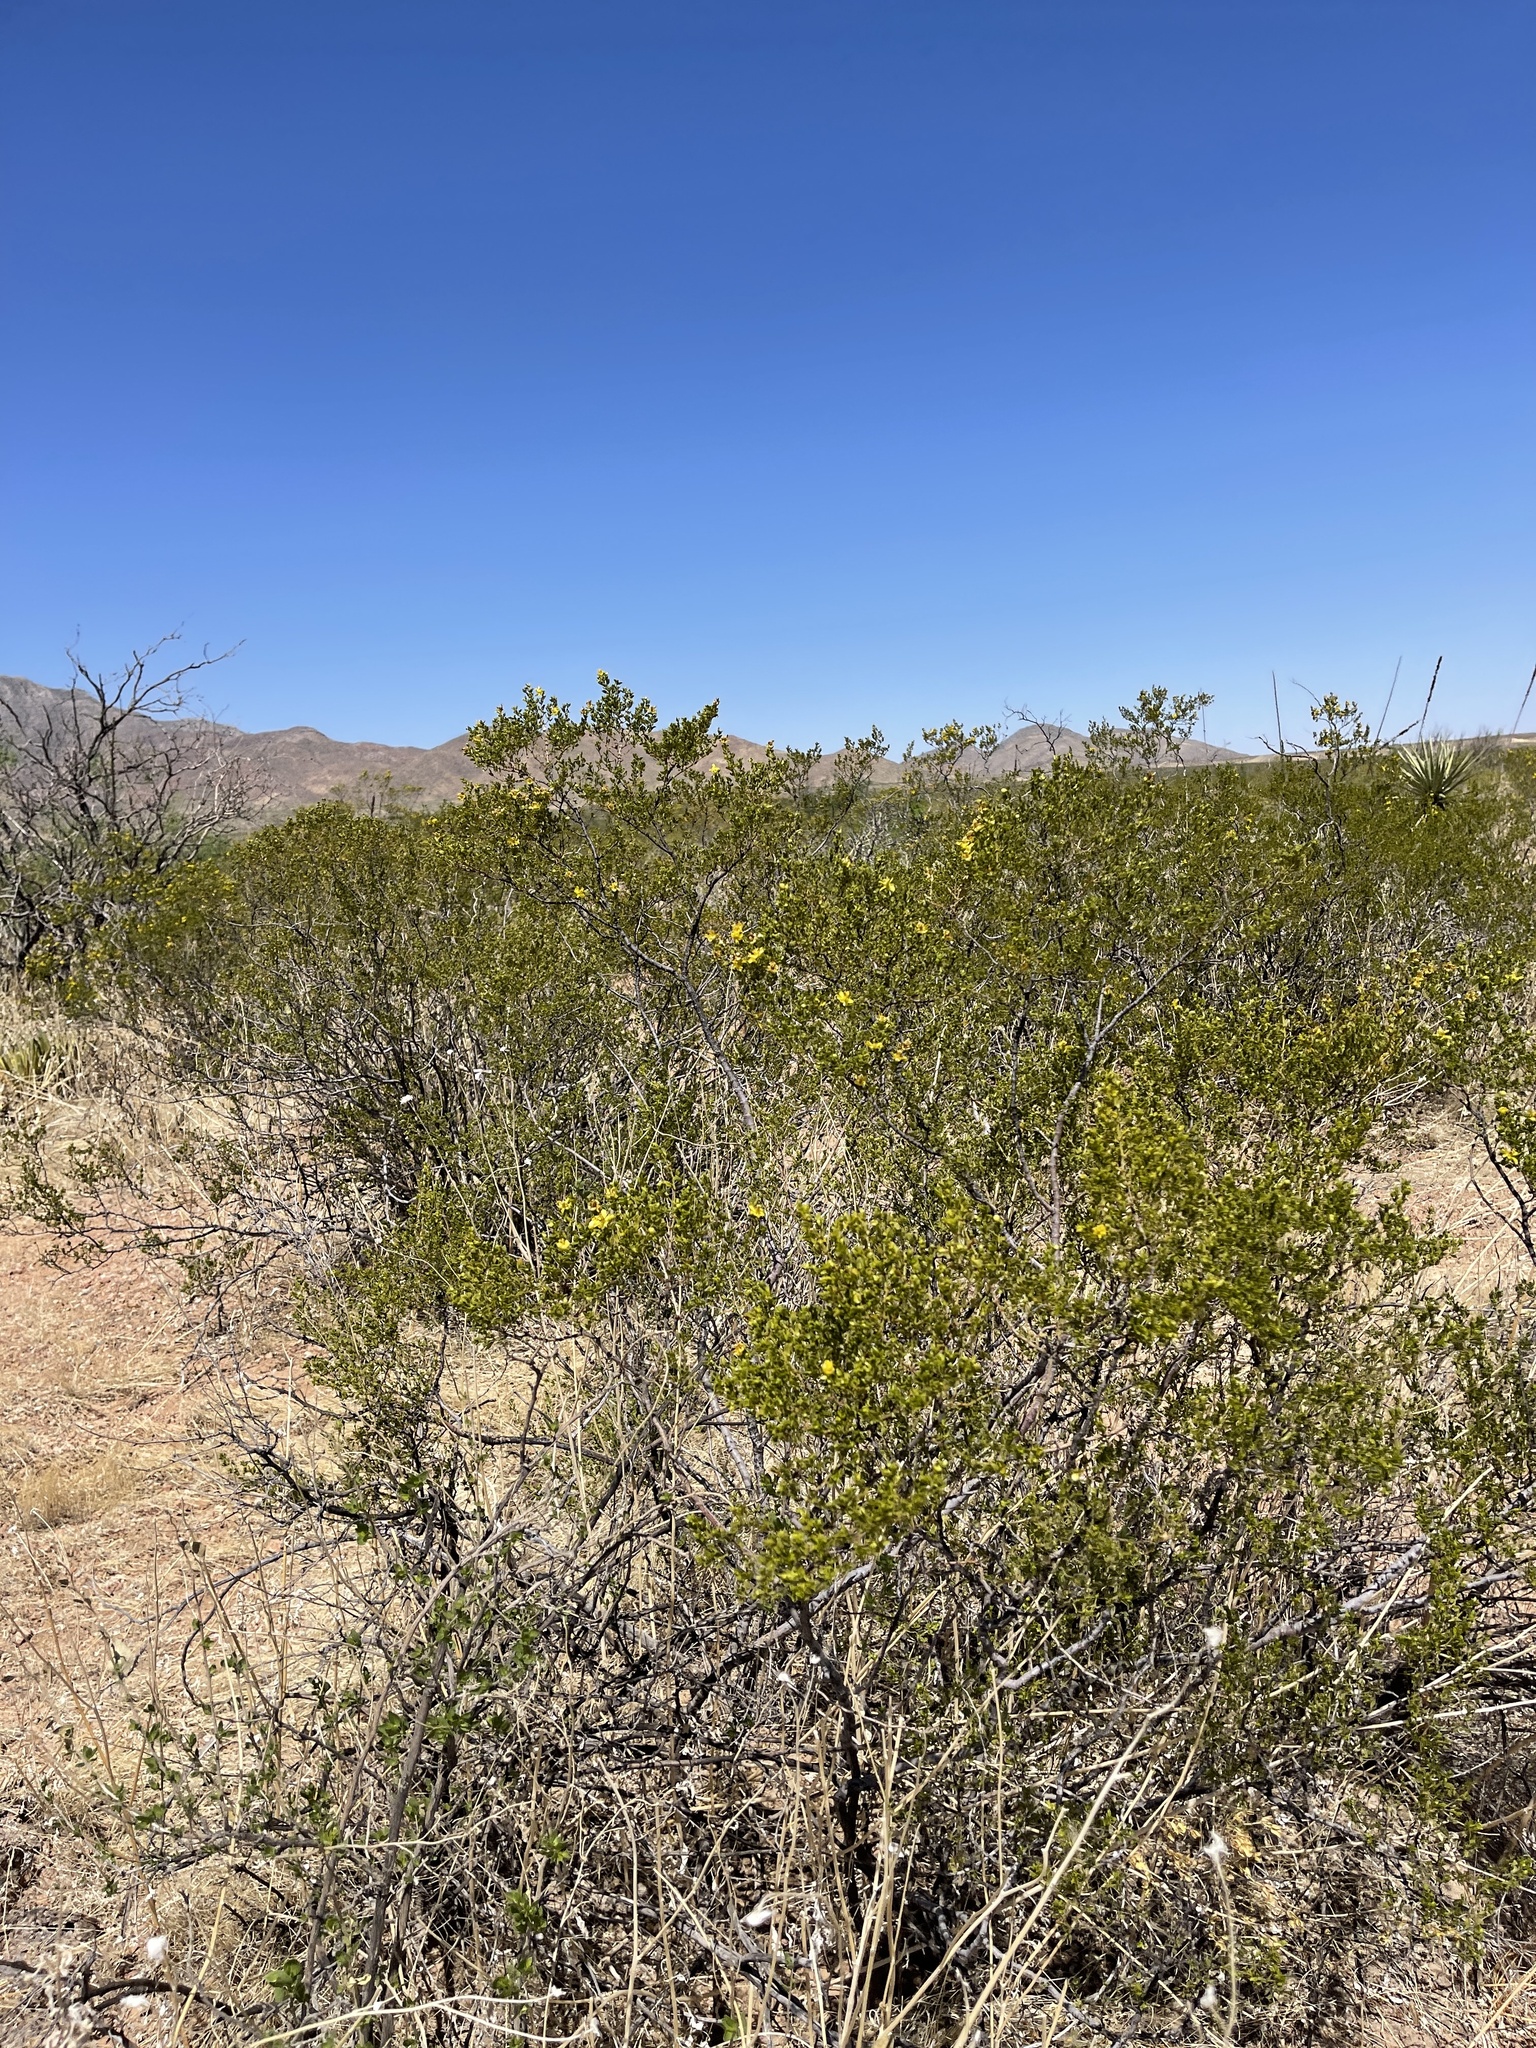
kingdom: Plantae
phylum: Tracheophyta
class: Magnoliopsida
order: Zygophyllales
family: Zygophyllaceae
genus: Larrea
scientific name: Larrea tridentata
